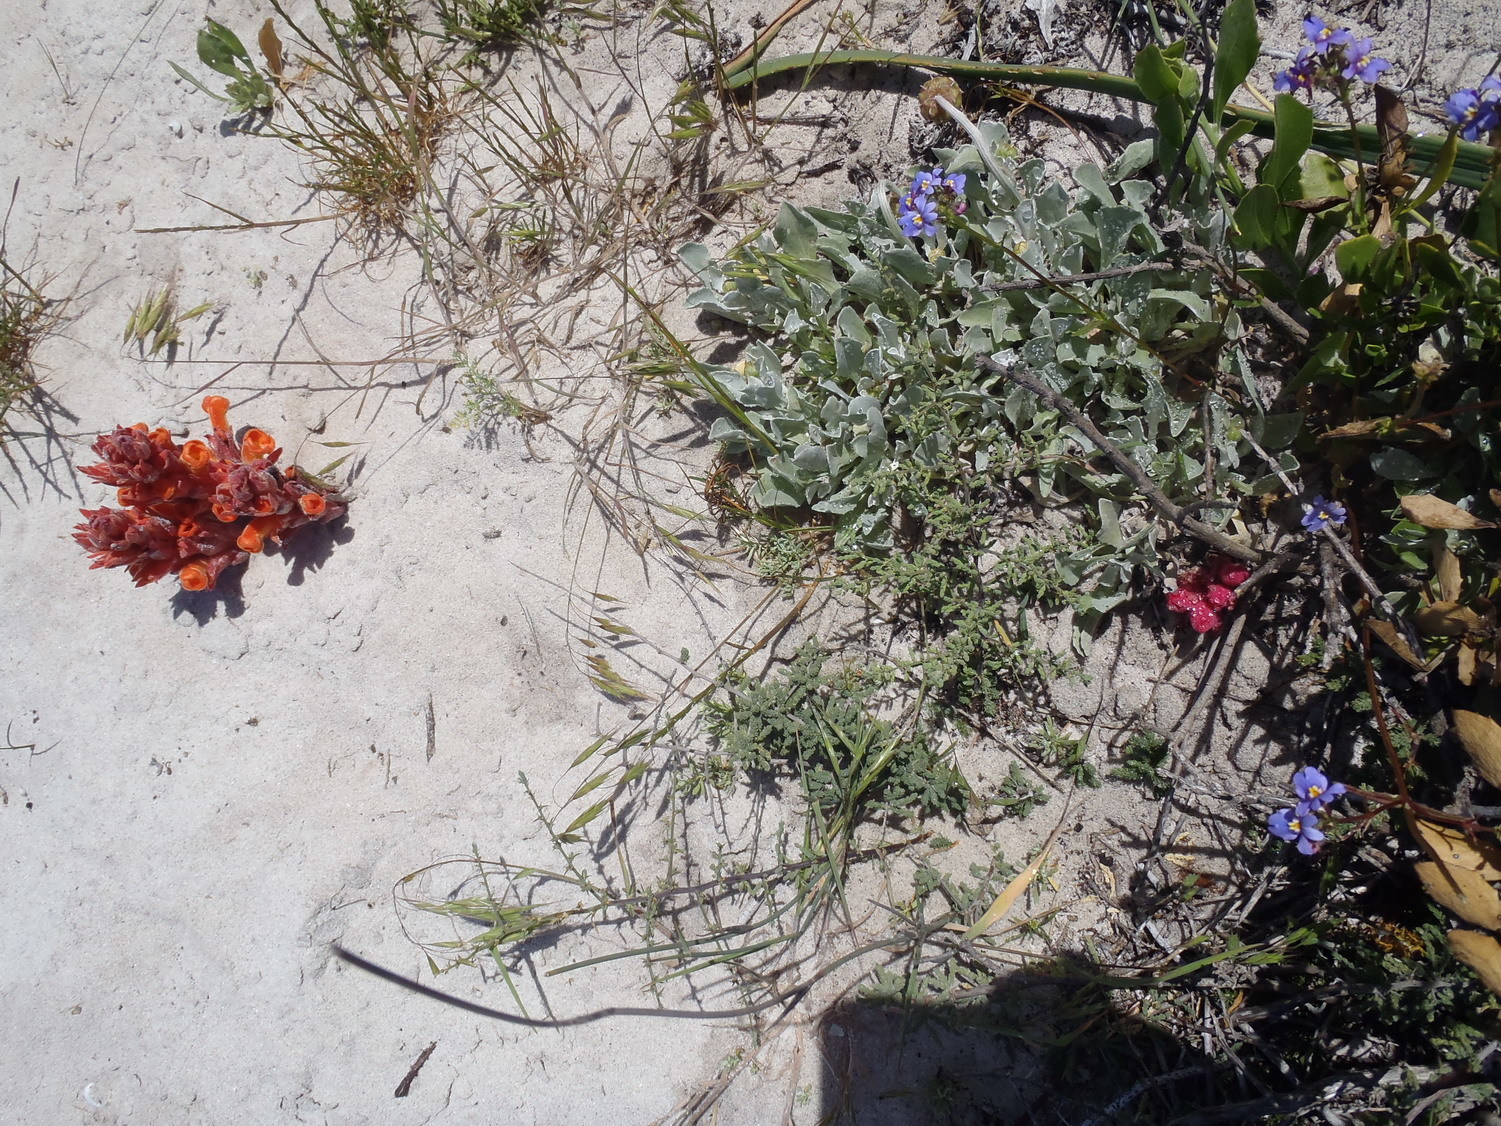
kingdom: Plantae
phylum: Tracheophyta
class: Magnoliopsida
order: Lamiales
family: Orobanchaceae
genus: Hyobanche
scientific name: Hyobanche sanguinea
